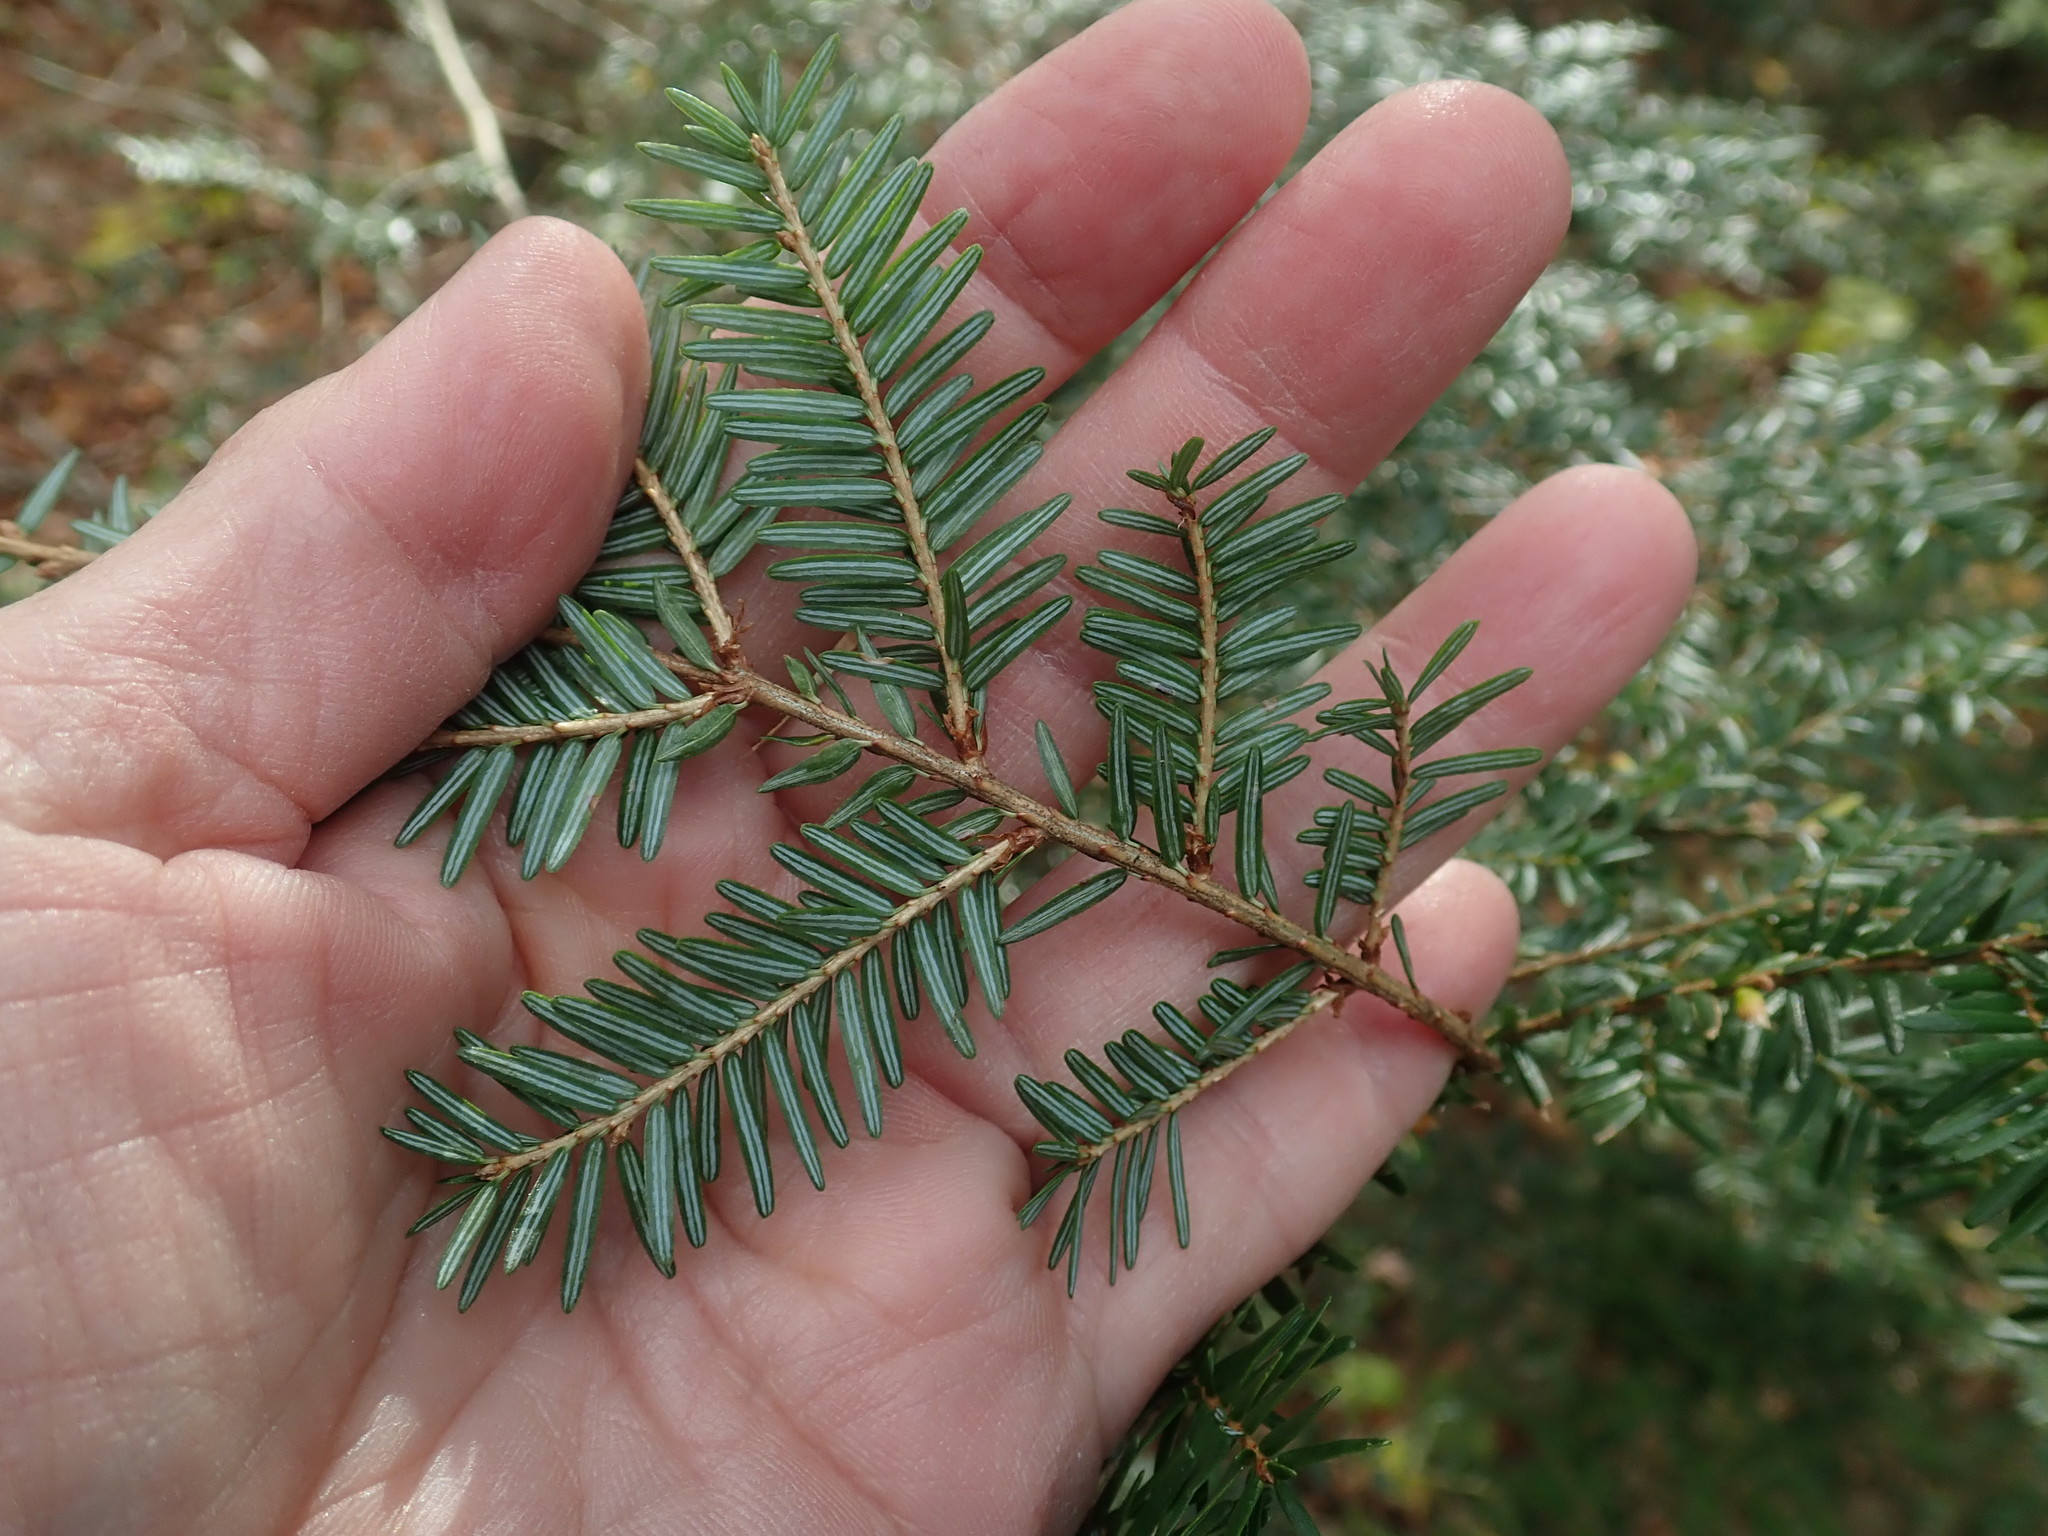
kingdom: Plantae
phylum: Tracheophyta
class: Pinopsida
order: Pinales
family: Pinaceae
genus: Tsuga
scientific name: Tsuga canadensis
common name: Eastern hemlock
